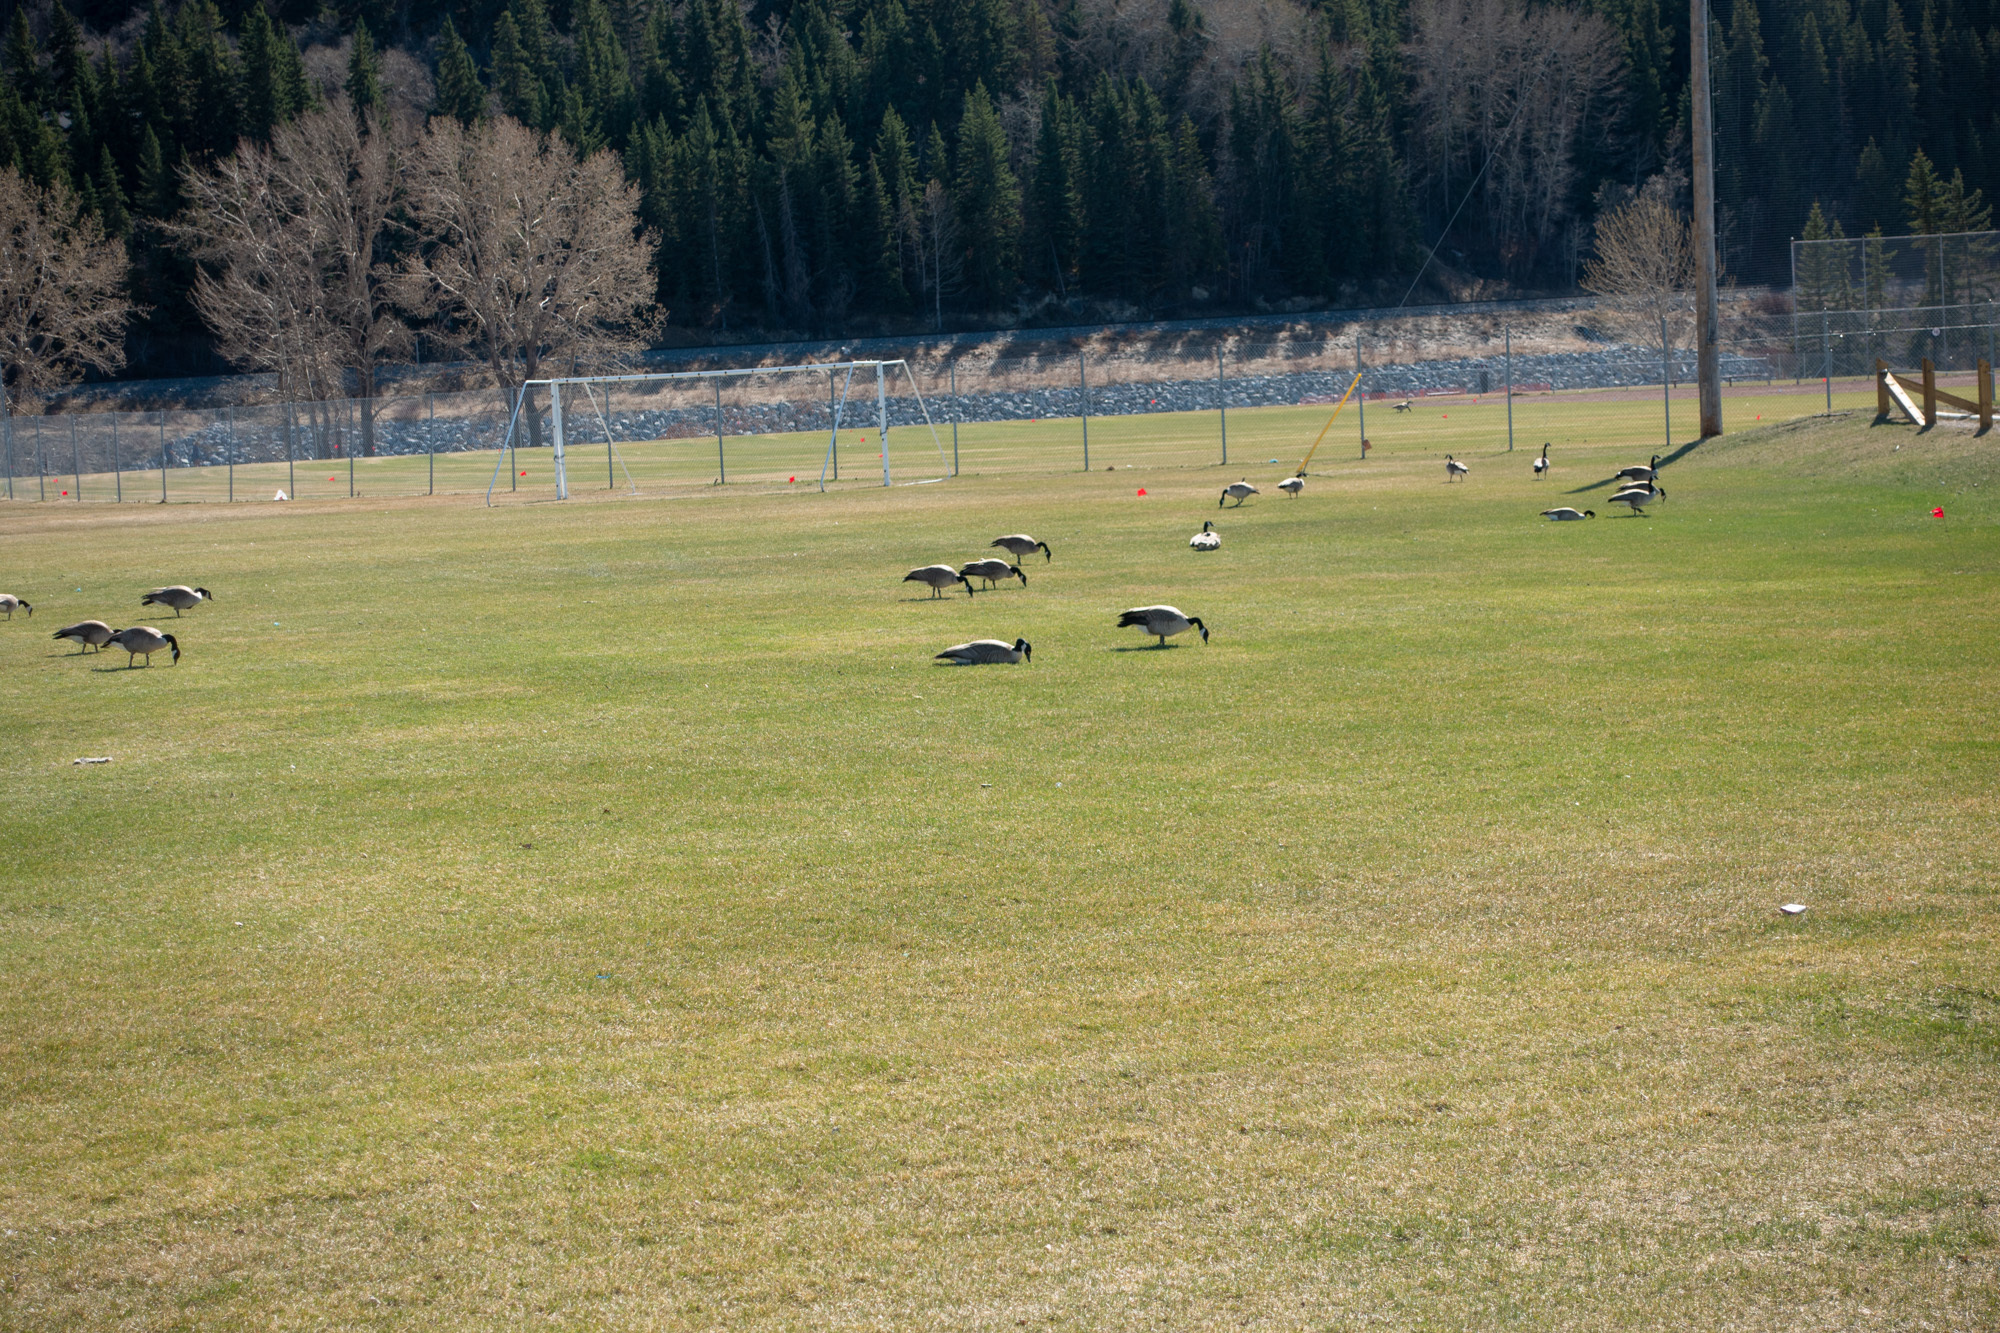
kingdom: Animalia
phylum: Chordata
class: Aves
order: Anseriformes
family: Anatidae
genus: Branta
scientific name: Branta canadensis
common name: Canada goose
